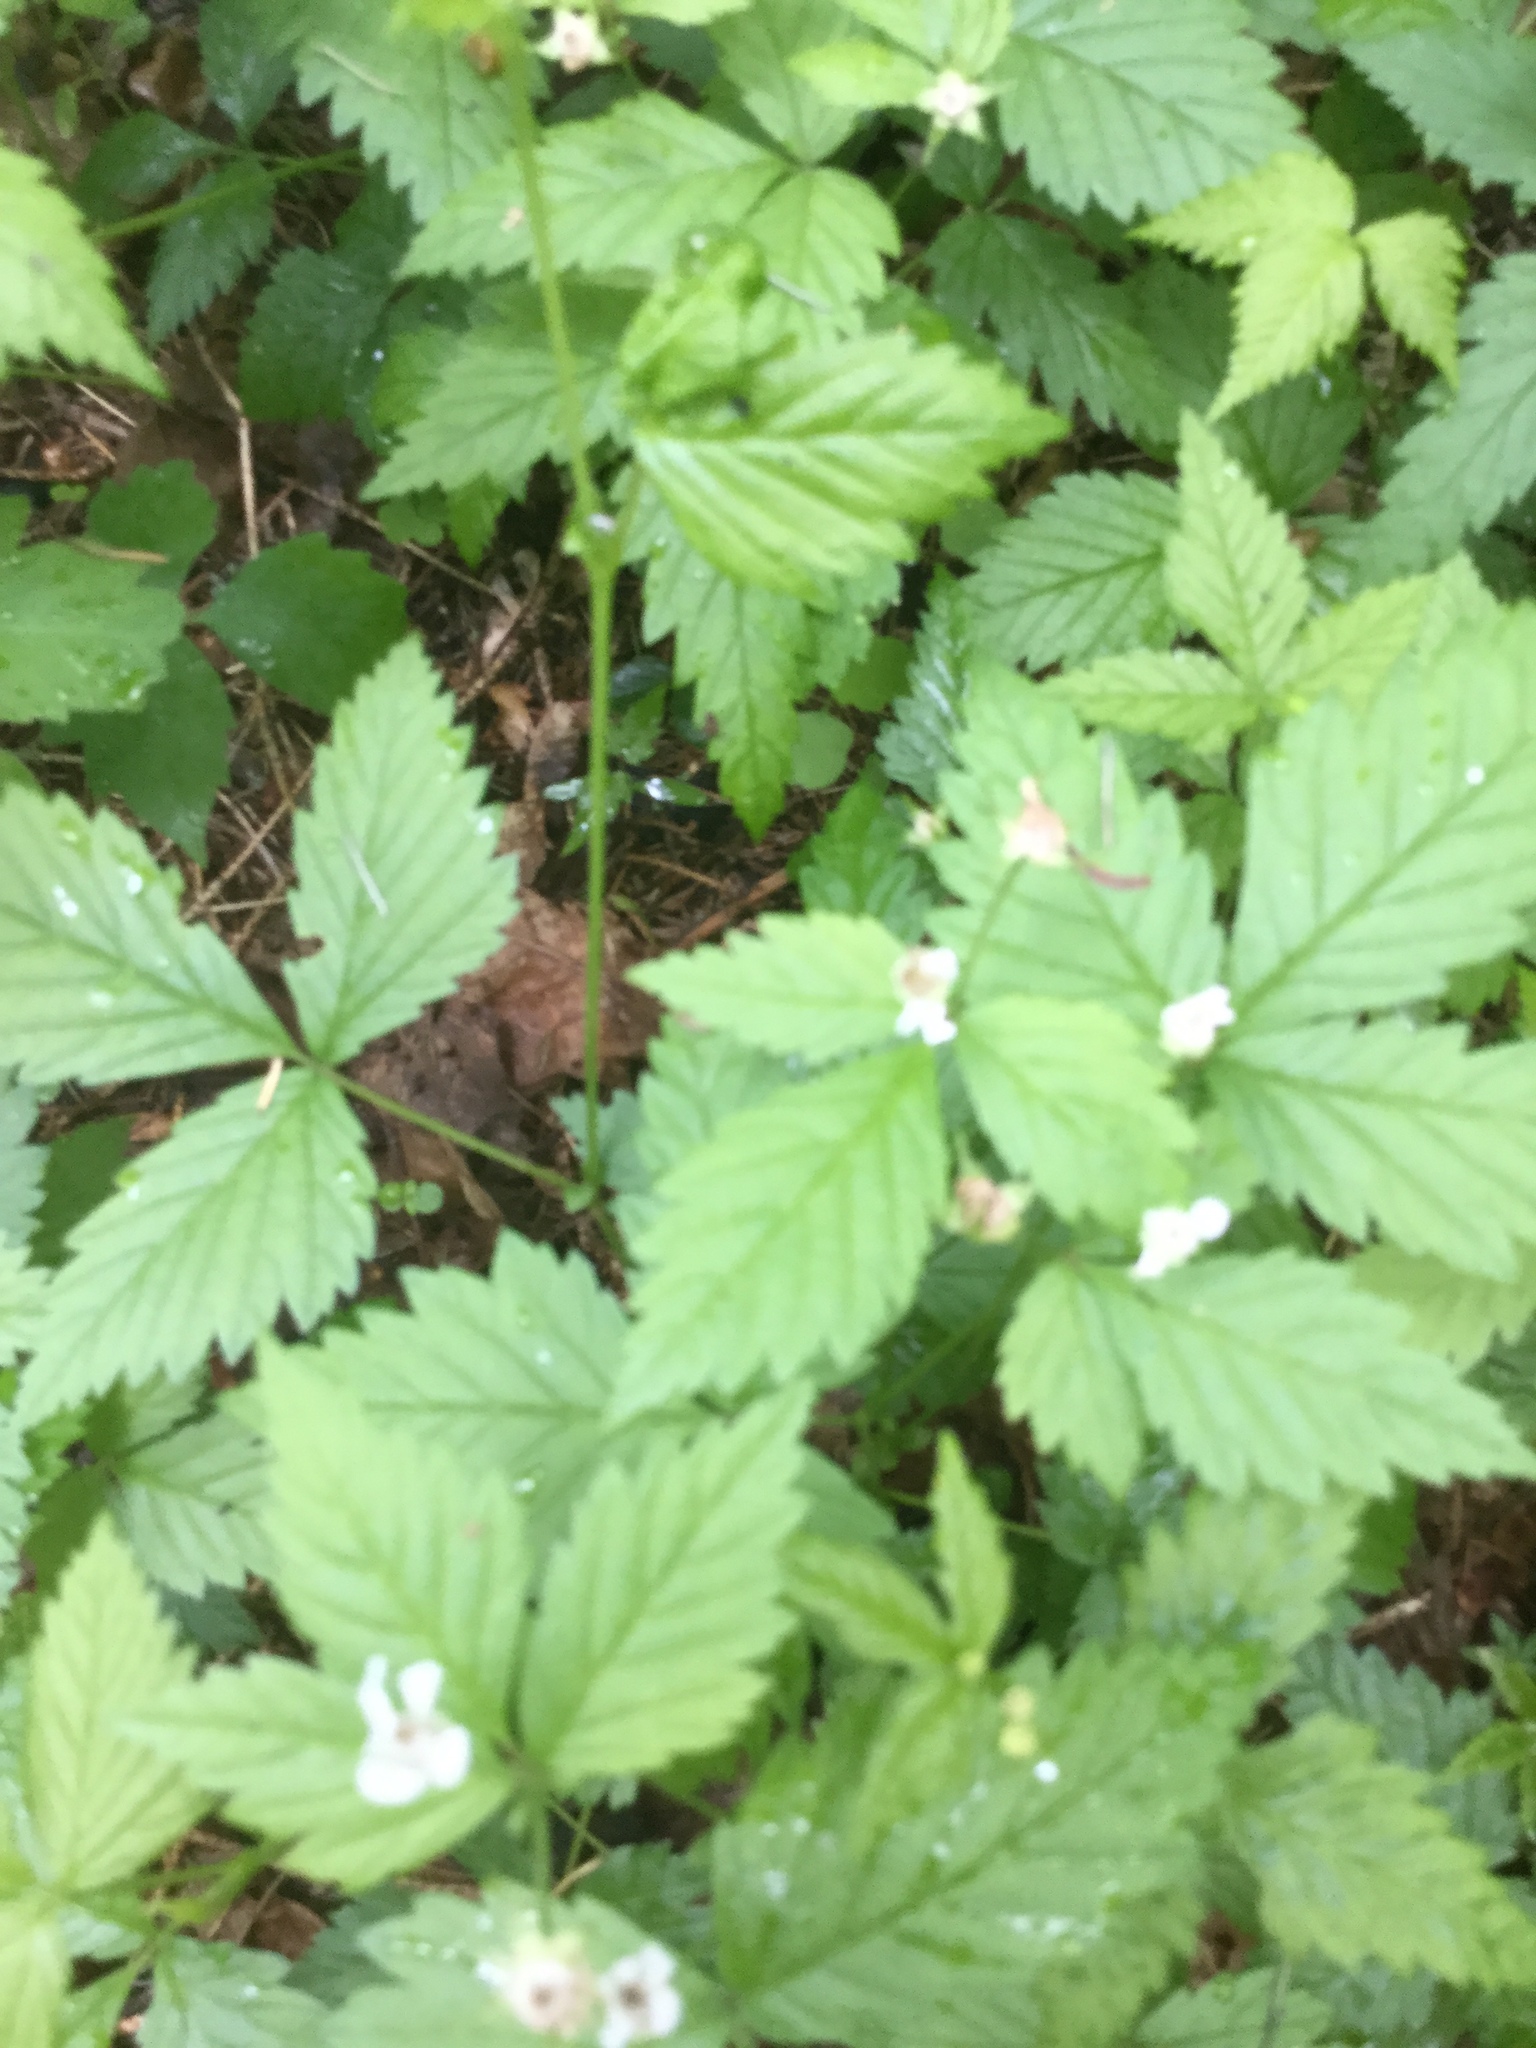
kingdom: Plantae
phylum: Tracheophyta
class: Magnoliopsida
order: Rosales
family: Rosaceae
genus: Rubus
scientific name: Rubus pubescens
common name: Dwarf raspberry
